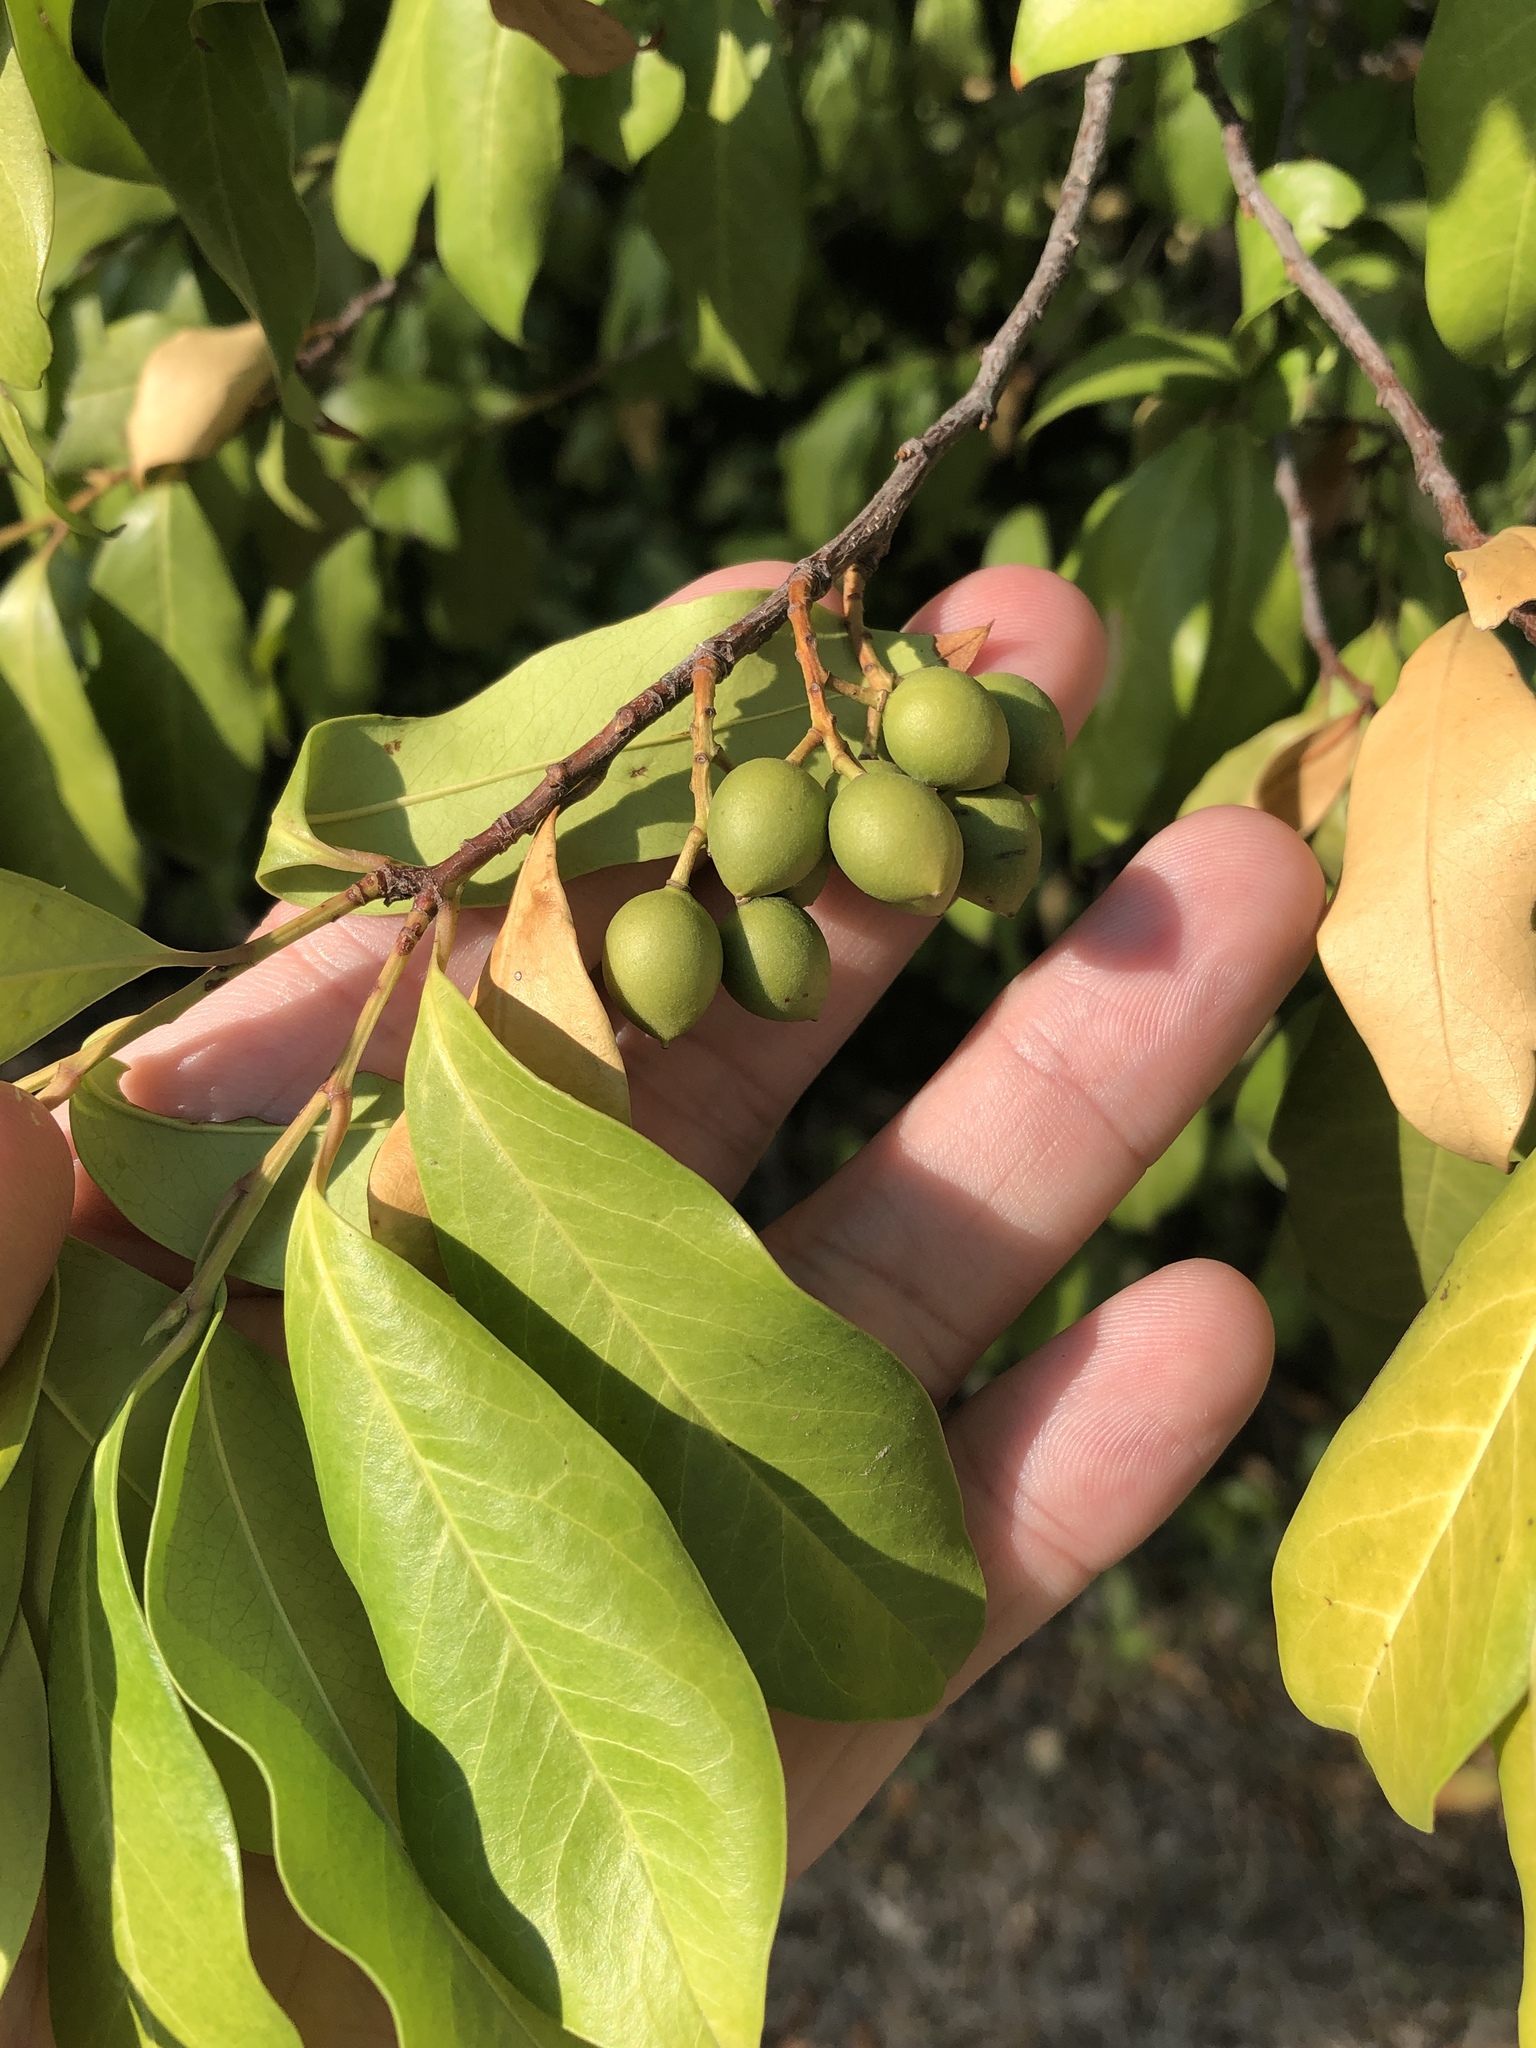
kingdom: Plantae
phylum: Tracheophyta
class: Magnoliopsida
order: Rosales
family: Rosaceae
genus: Prunus
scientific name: Prunus caroliniana
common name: Carolina laurel cherry
